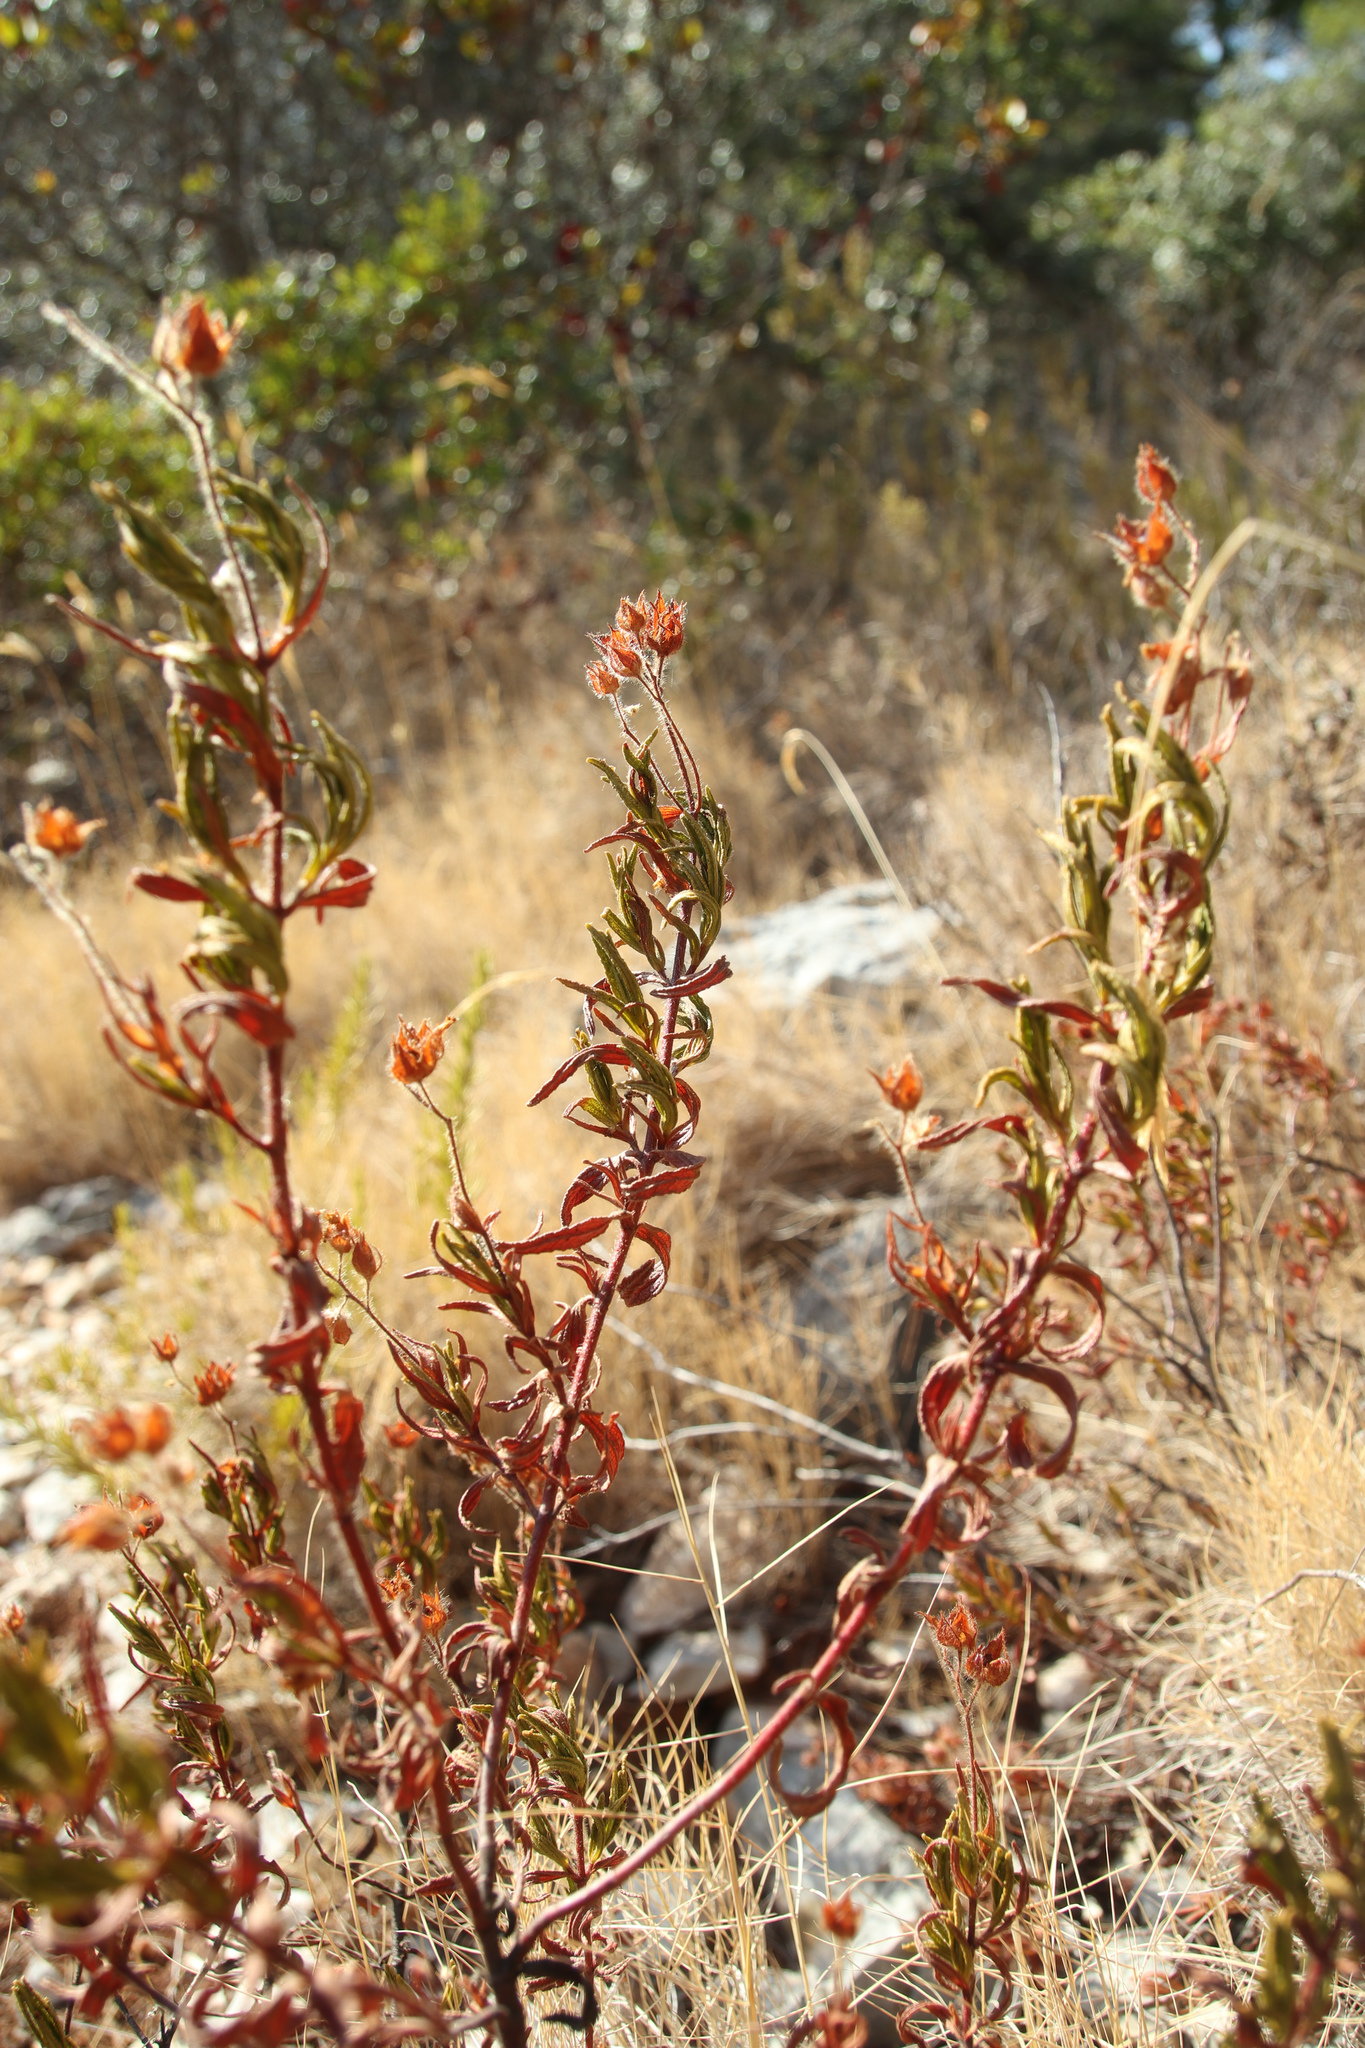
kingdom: Plantae
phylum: Tracheophyta
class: Magnoliopsida
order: Malvales
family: Cistaceae
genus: Cistus
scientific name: Cistus monspeliensis
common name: Montpelier cistus
